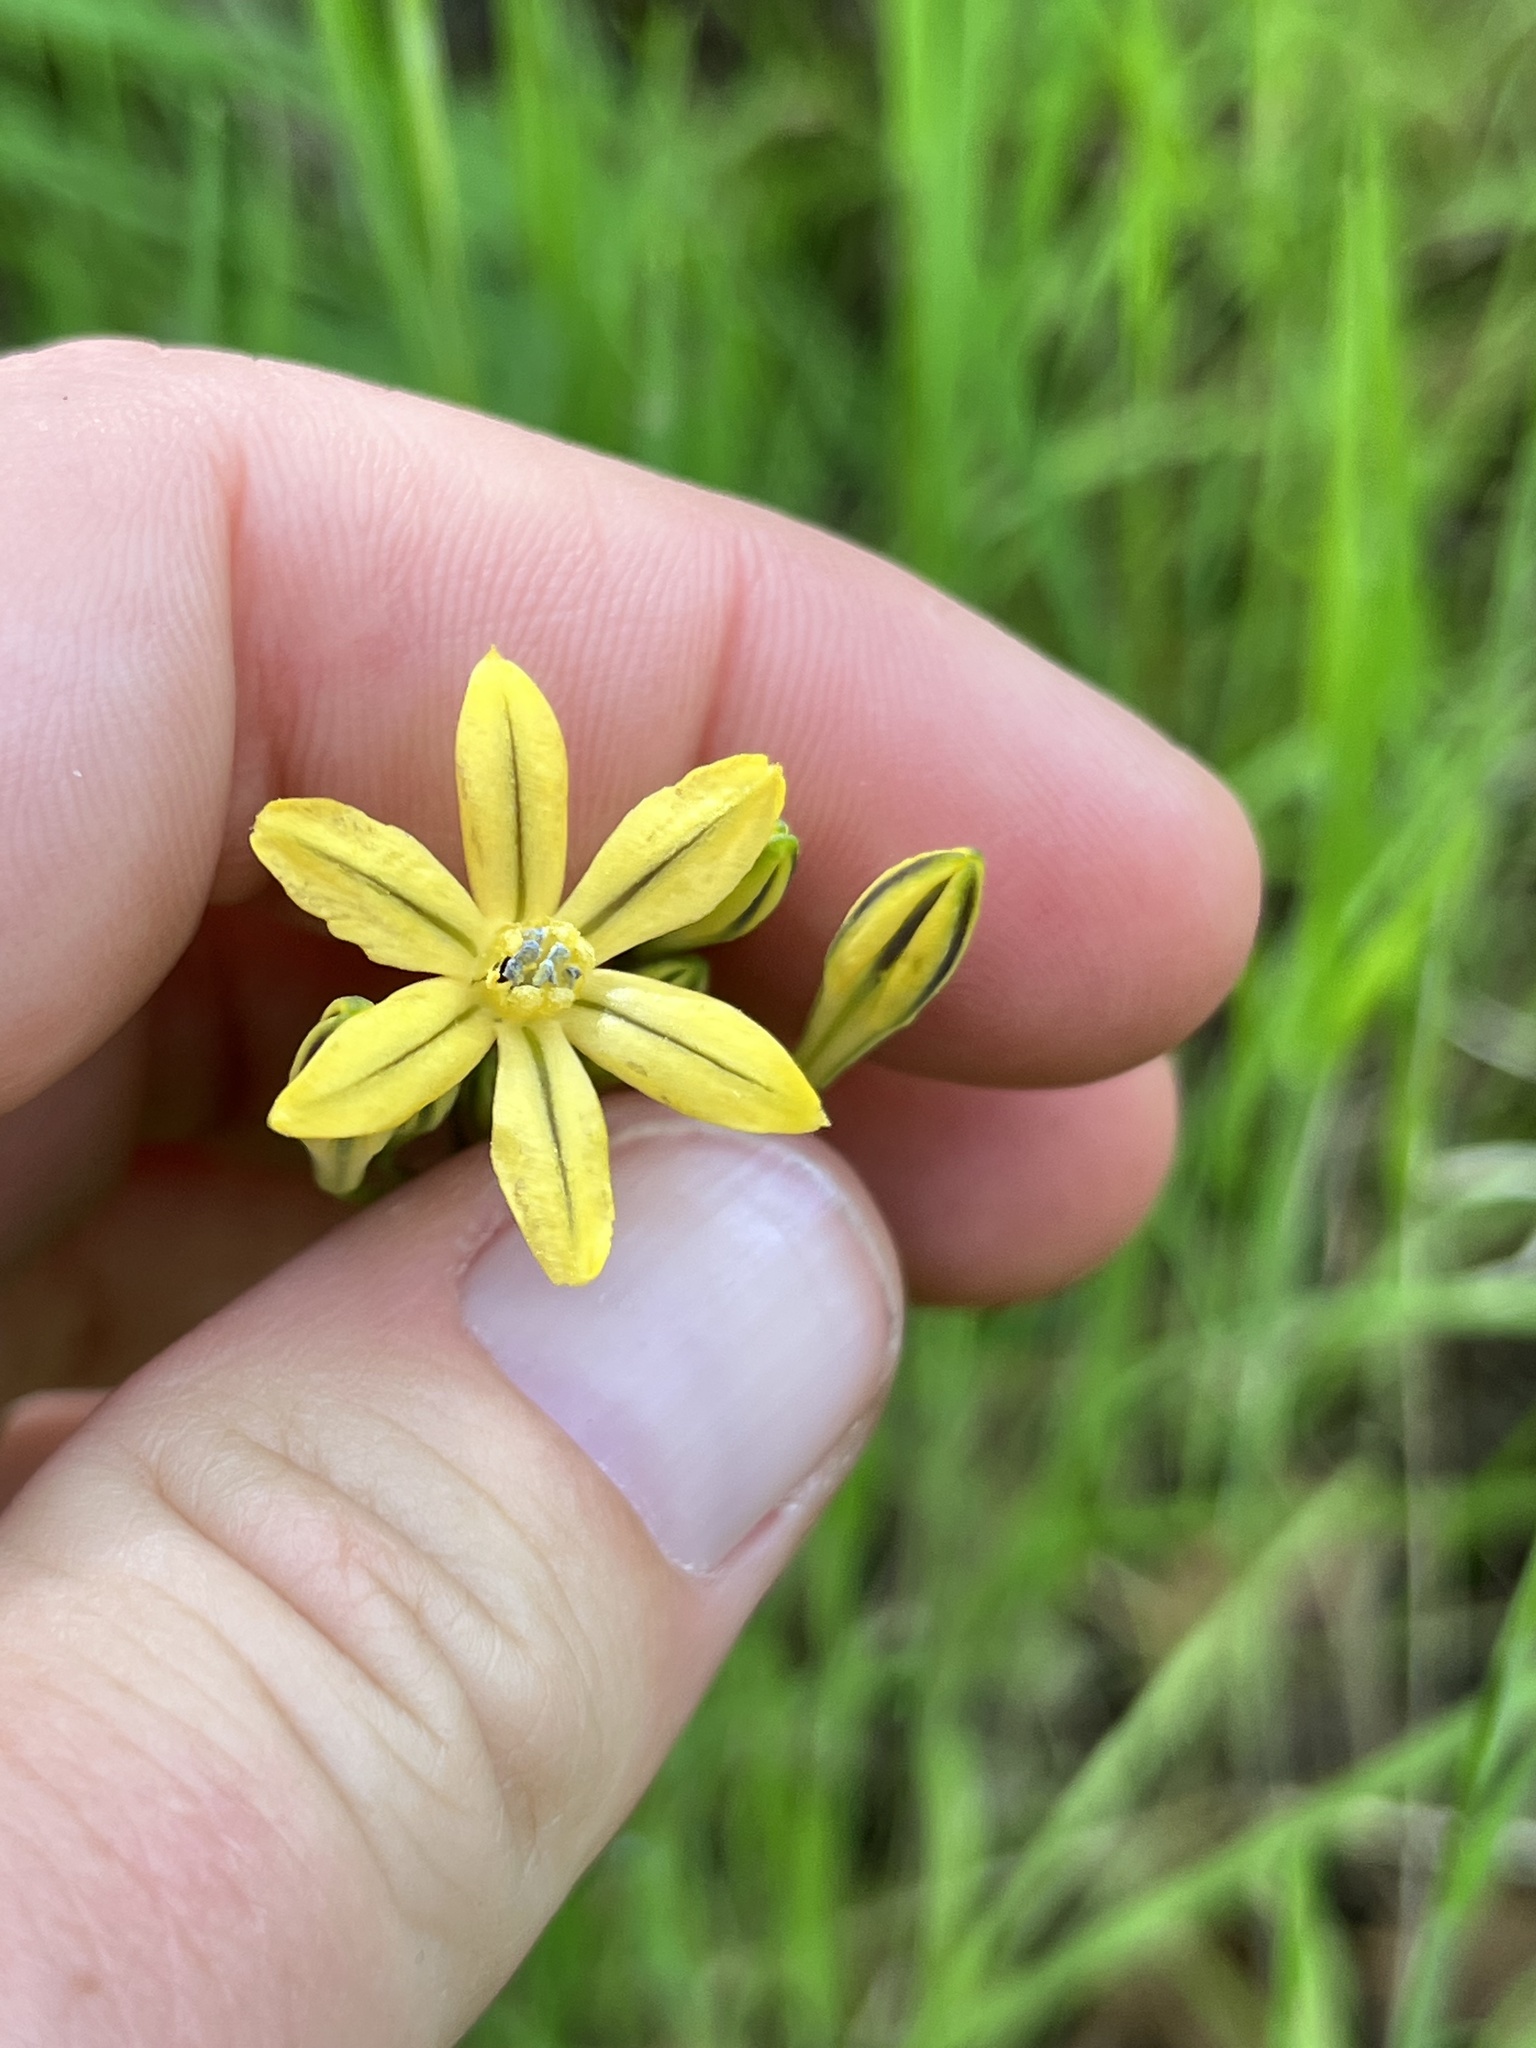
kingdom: Plantae
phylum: Tracheophyta
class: Liliopsida
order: Asparagales
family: Asparagaceae
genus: Triteleia
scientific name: Triteleia lugens
